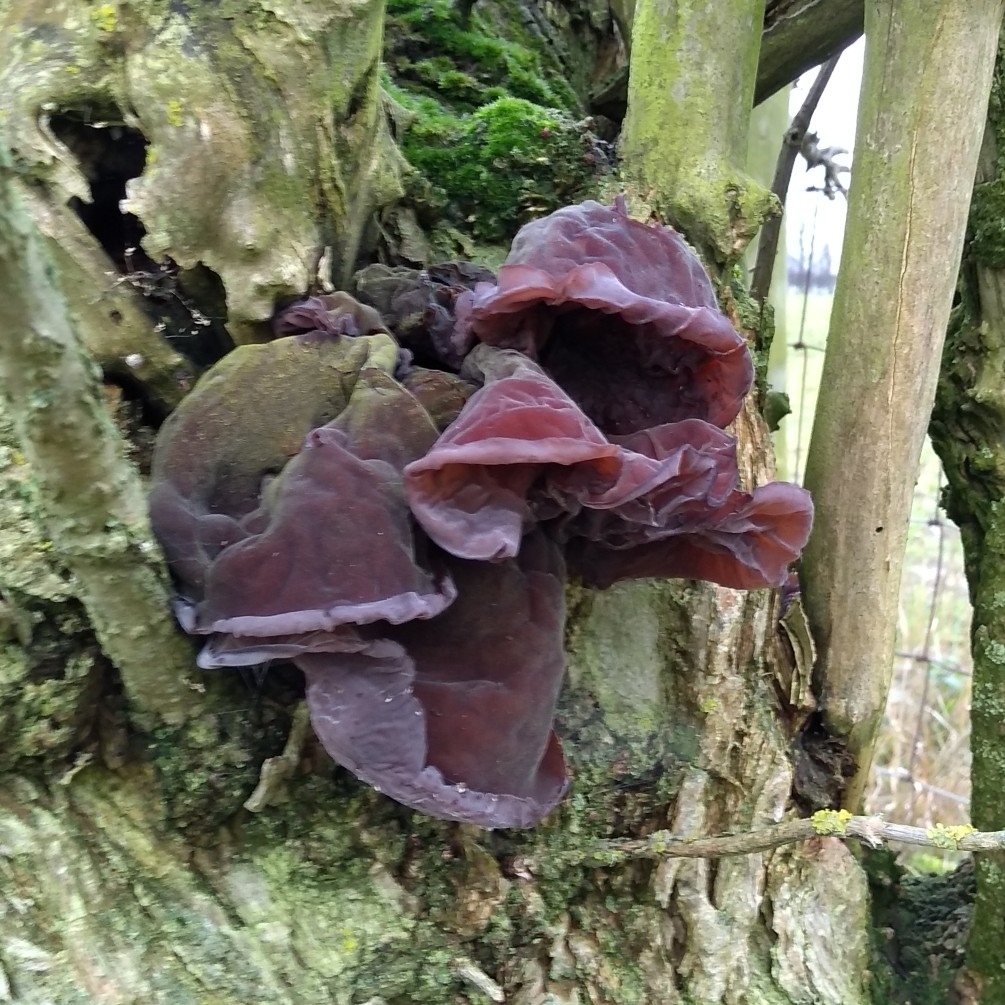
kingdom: Fungi
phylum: Basidiomycota
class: Agaricomycetes
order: Auriculariales
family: Auriculariaceae
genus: Auricularia
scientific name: Auricularia auricula-judae
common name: Jelly ear
